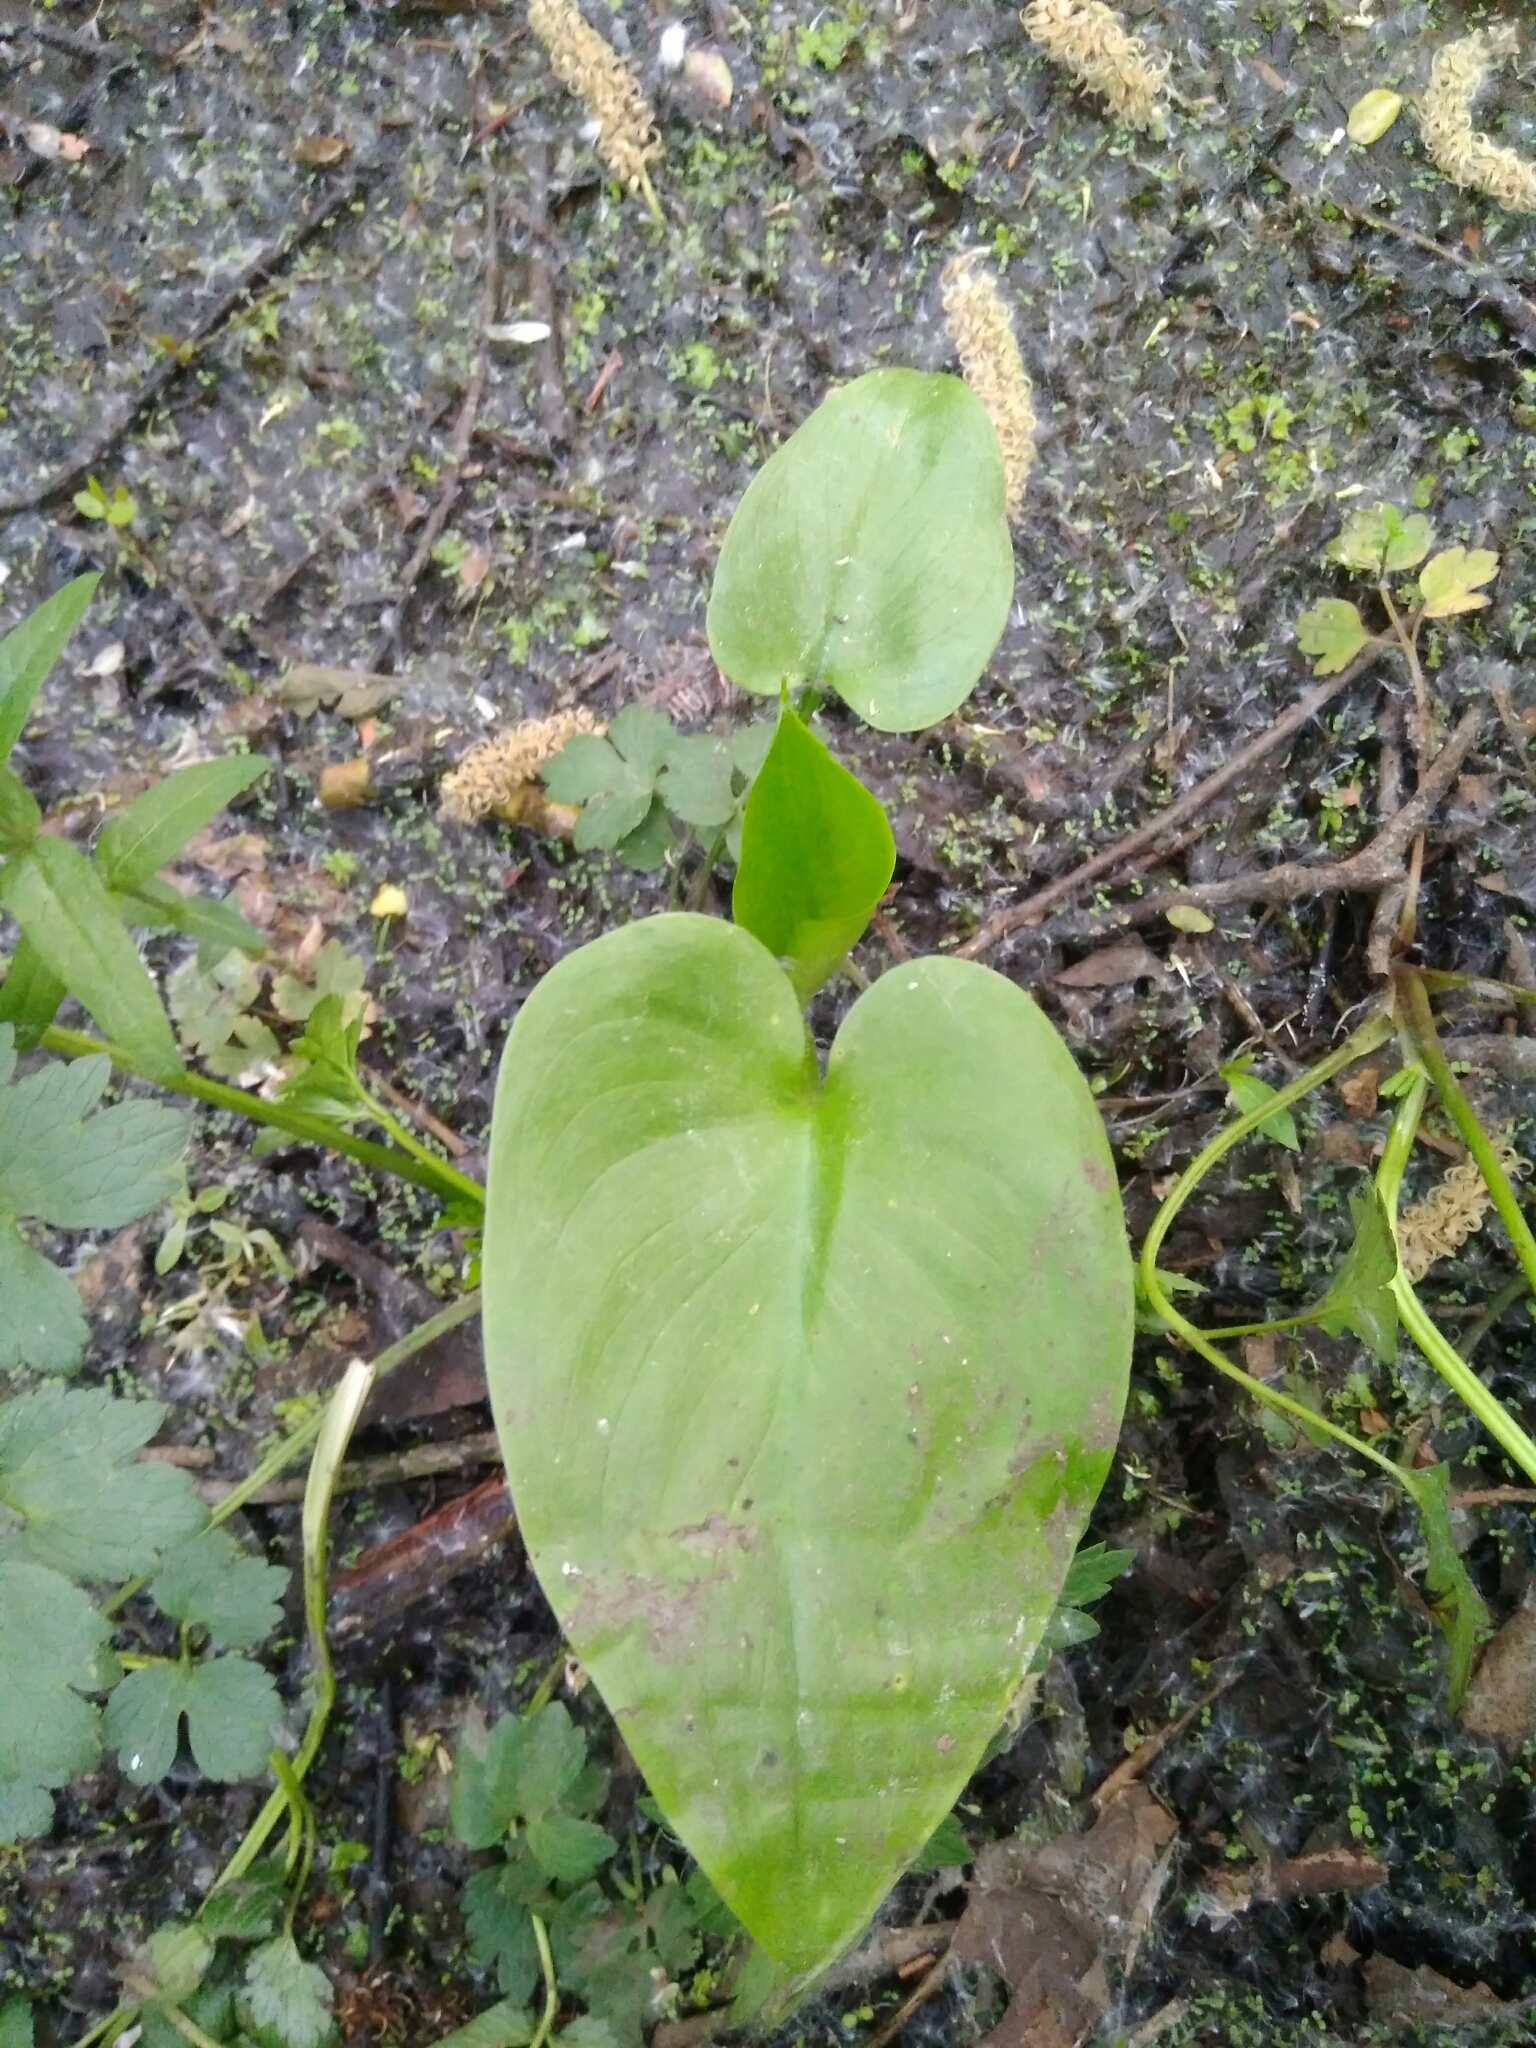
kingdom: Plantae
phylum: Tracheophyta
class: Liliopsida
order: Alismatales
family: Araceae
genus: Calla
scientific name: Calla palustris
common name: Bog arum
